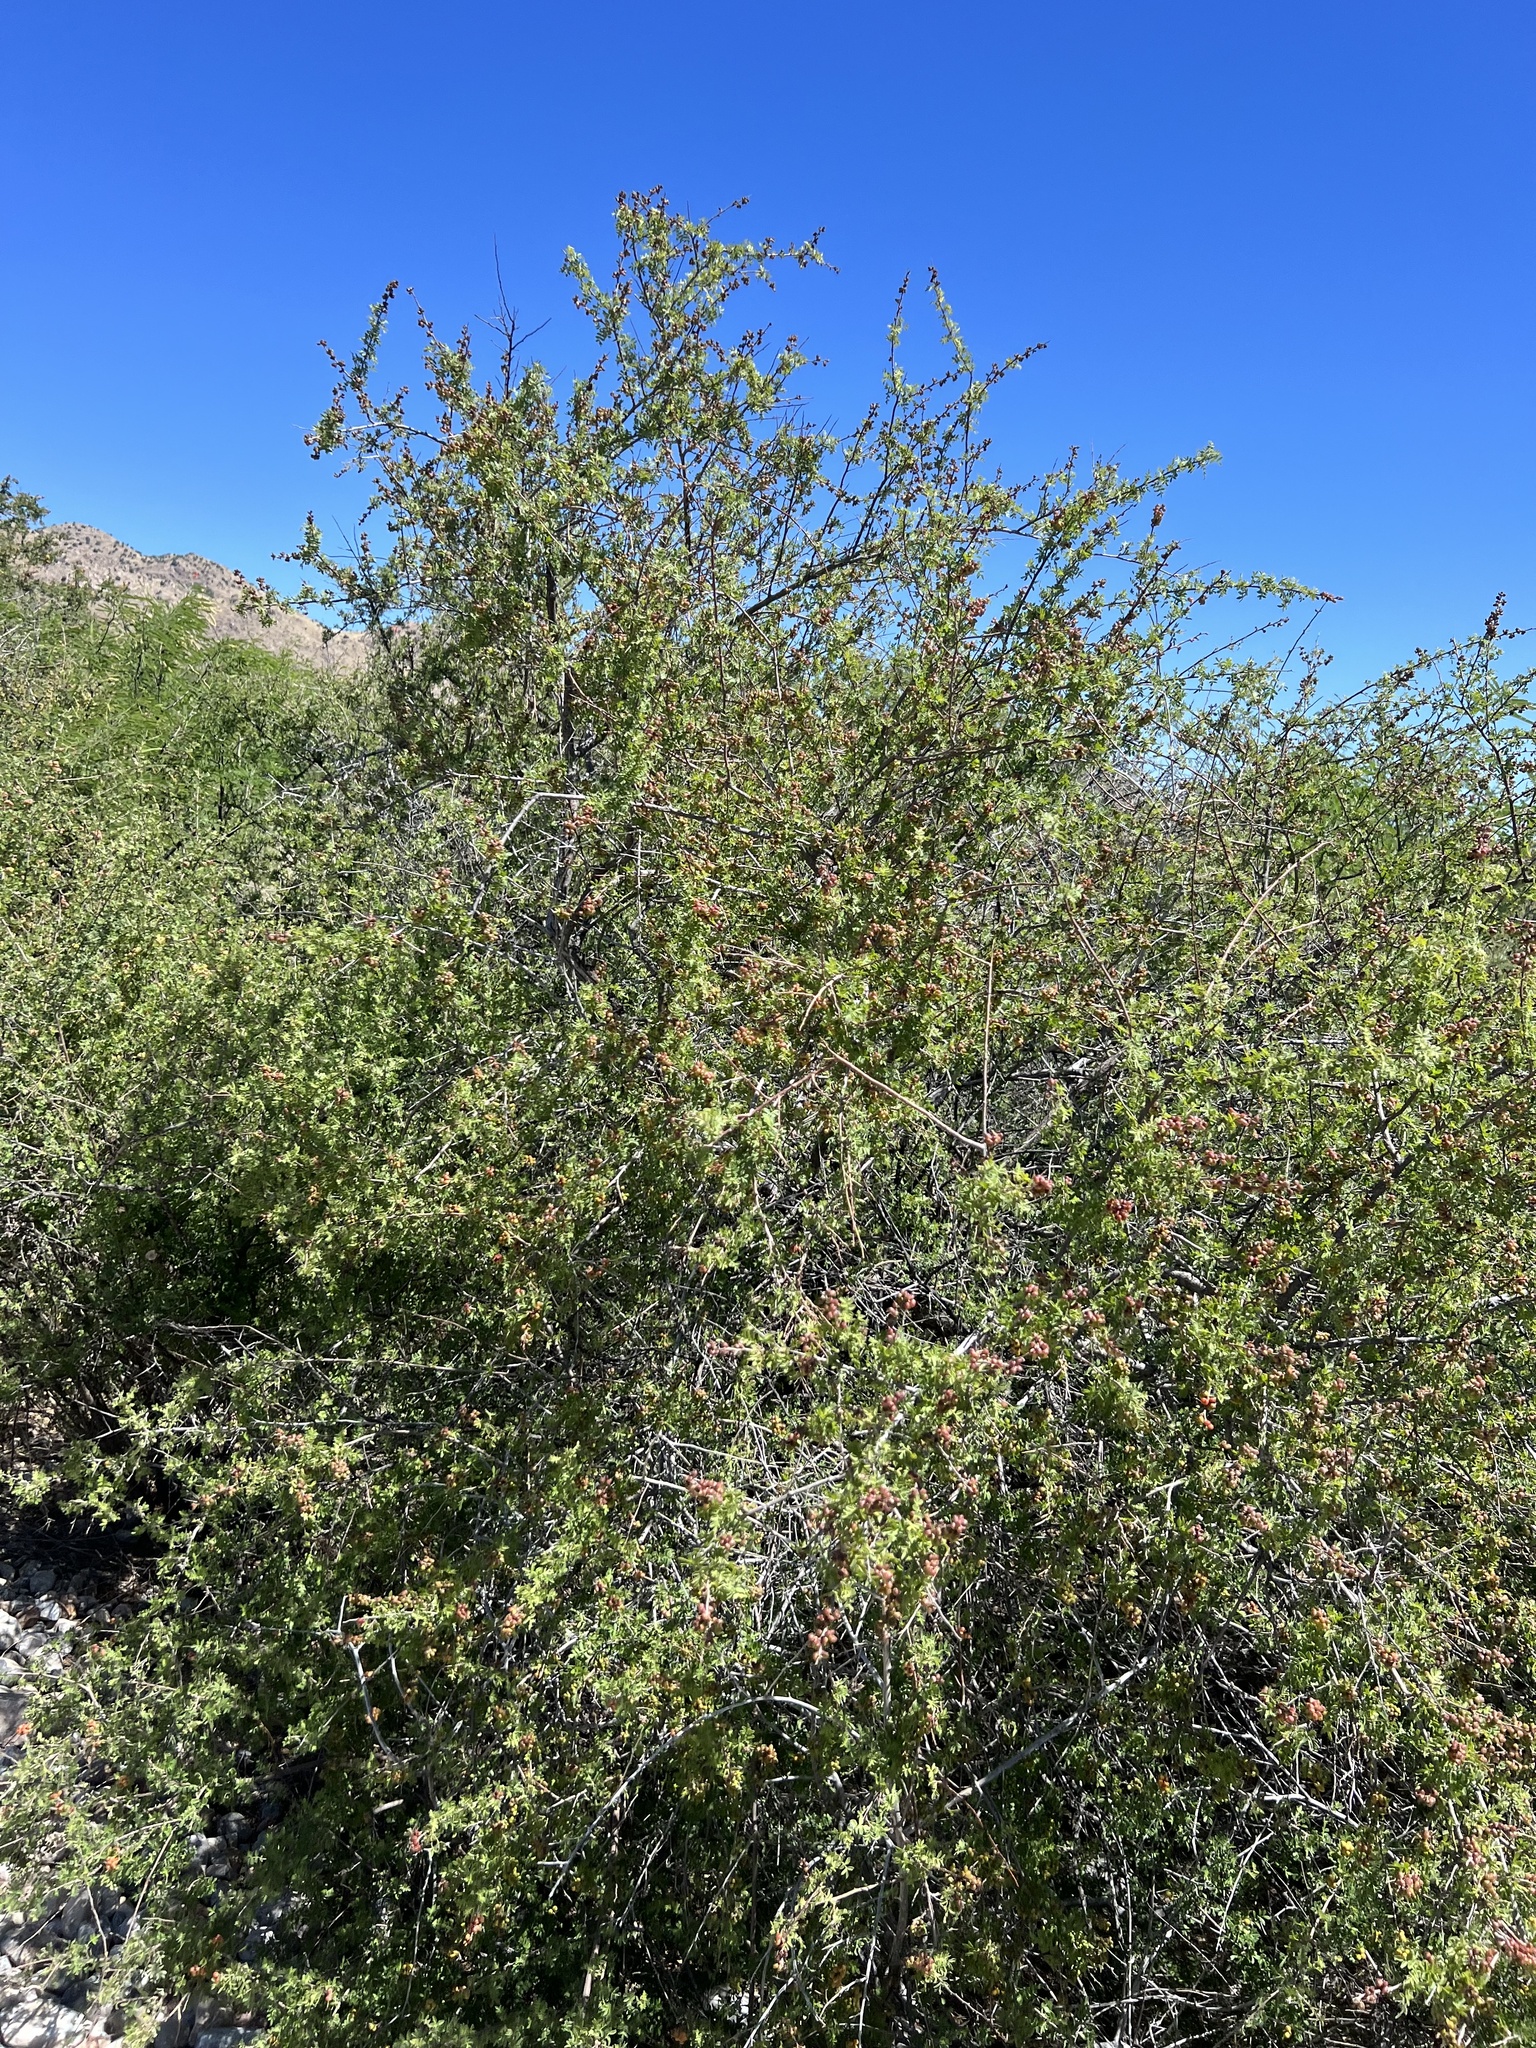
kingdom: Plantae
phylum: Tracheophyta
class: Magnoliopsida
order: Sapindales
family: Anacardiaceae
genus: Rhus
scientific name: Rhus microphylla
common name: Desert sumac
